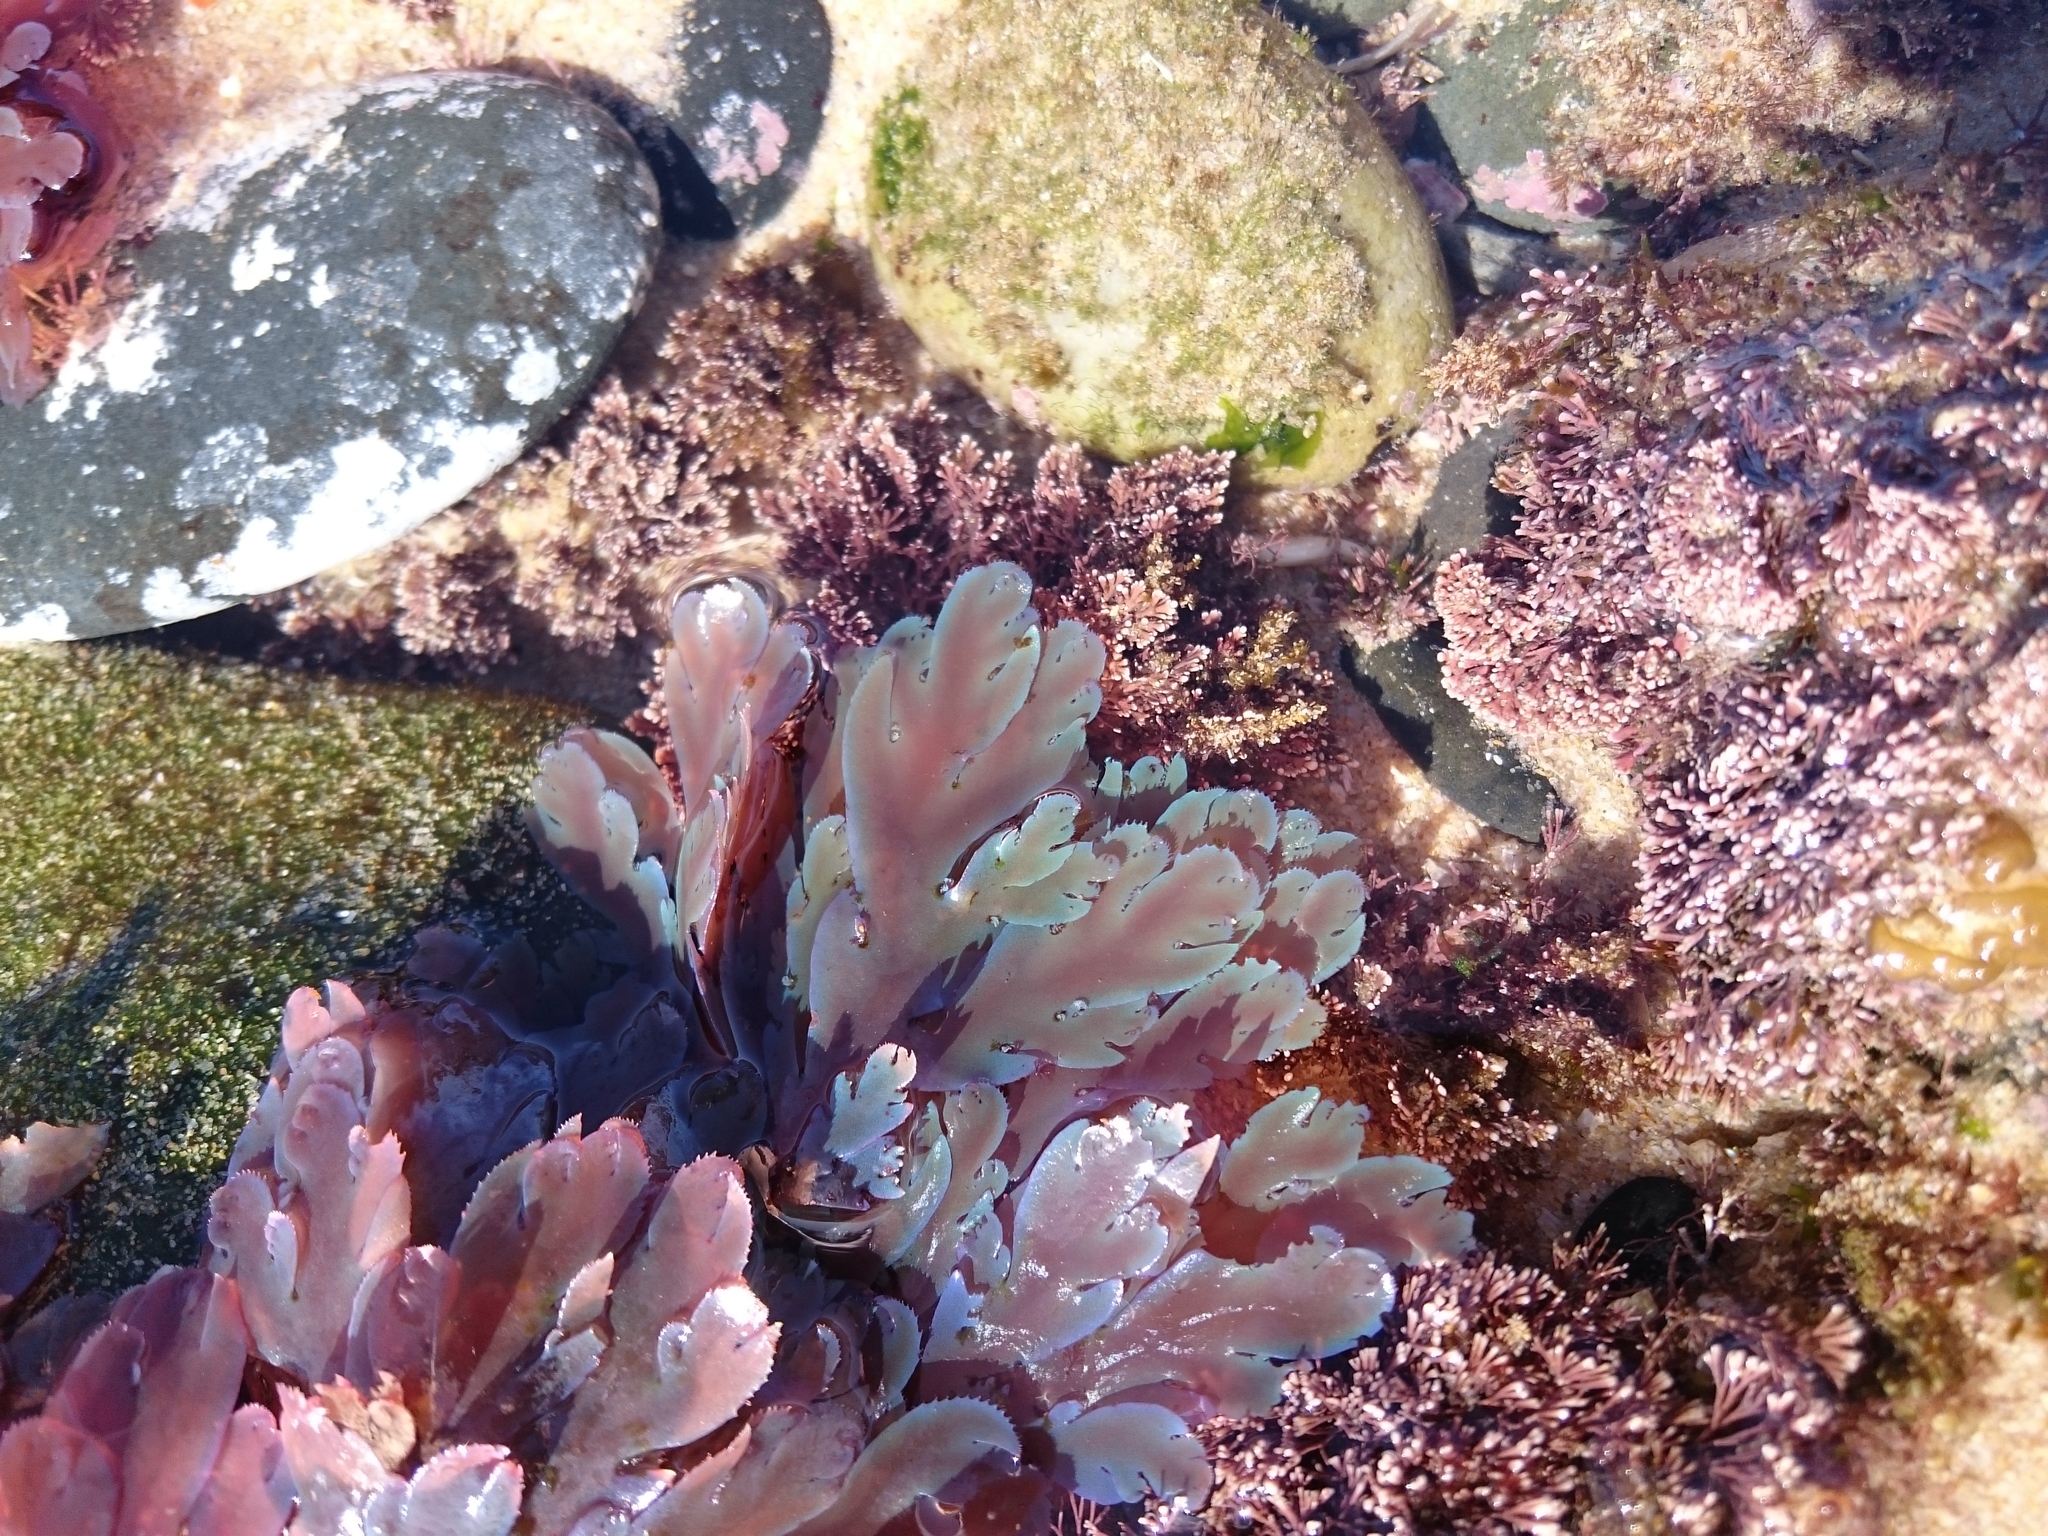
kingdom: Plantae
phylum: Rhodophyta
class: Florideophyceae
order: Plocamiales
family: Plocamiaceae
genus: Plocamium
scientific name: Plocamium corallorhiza
